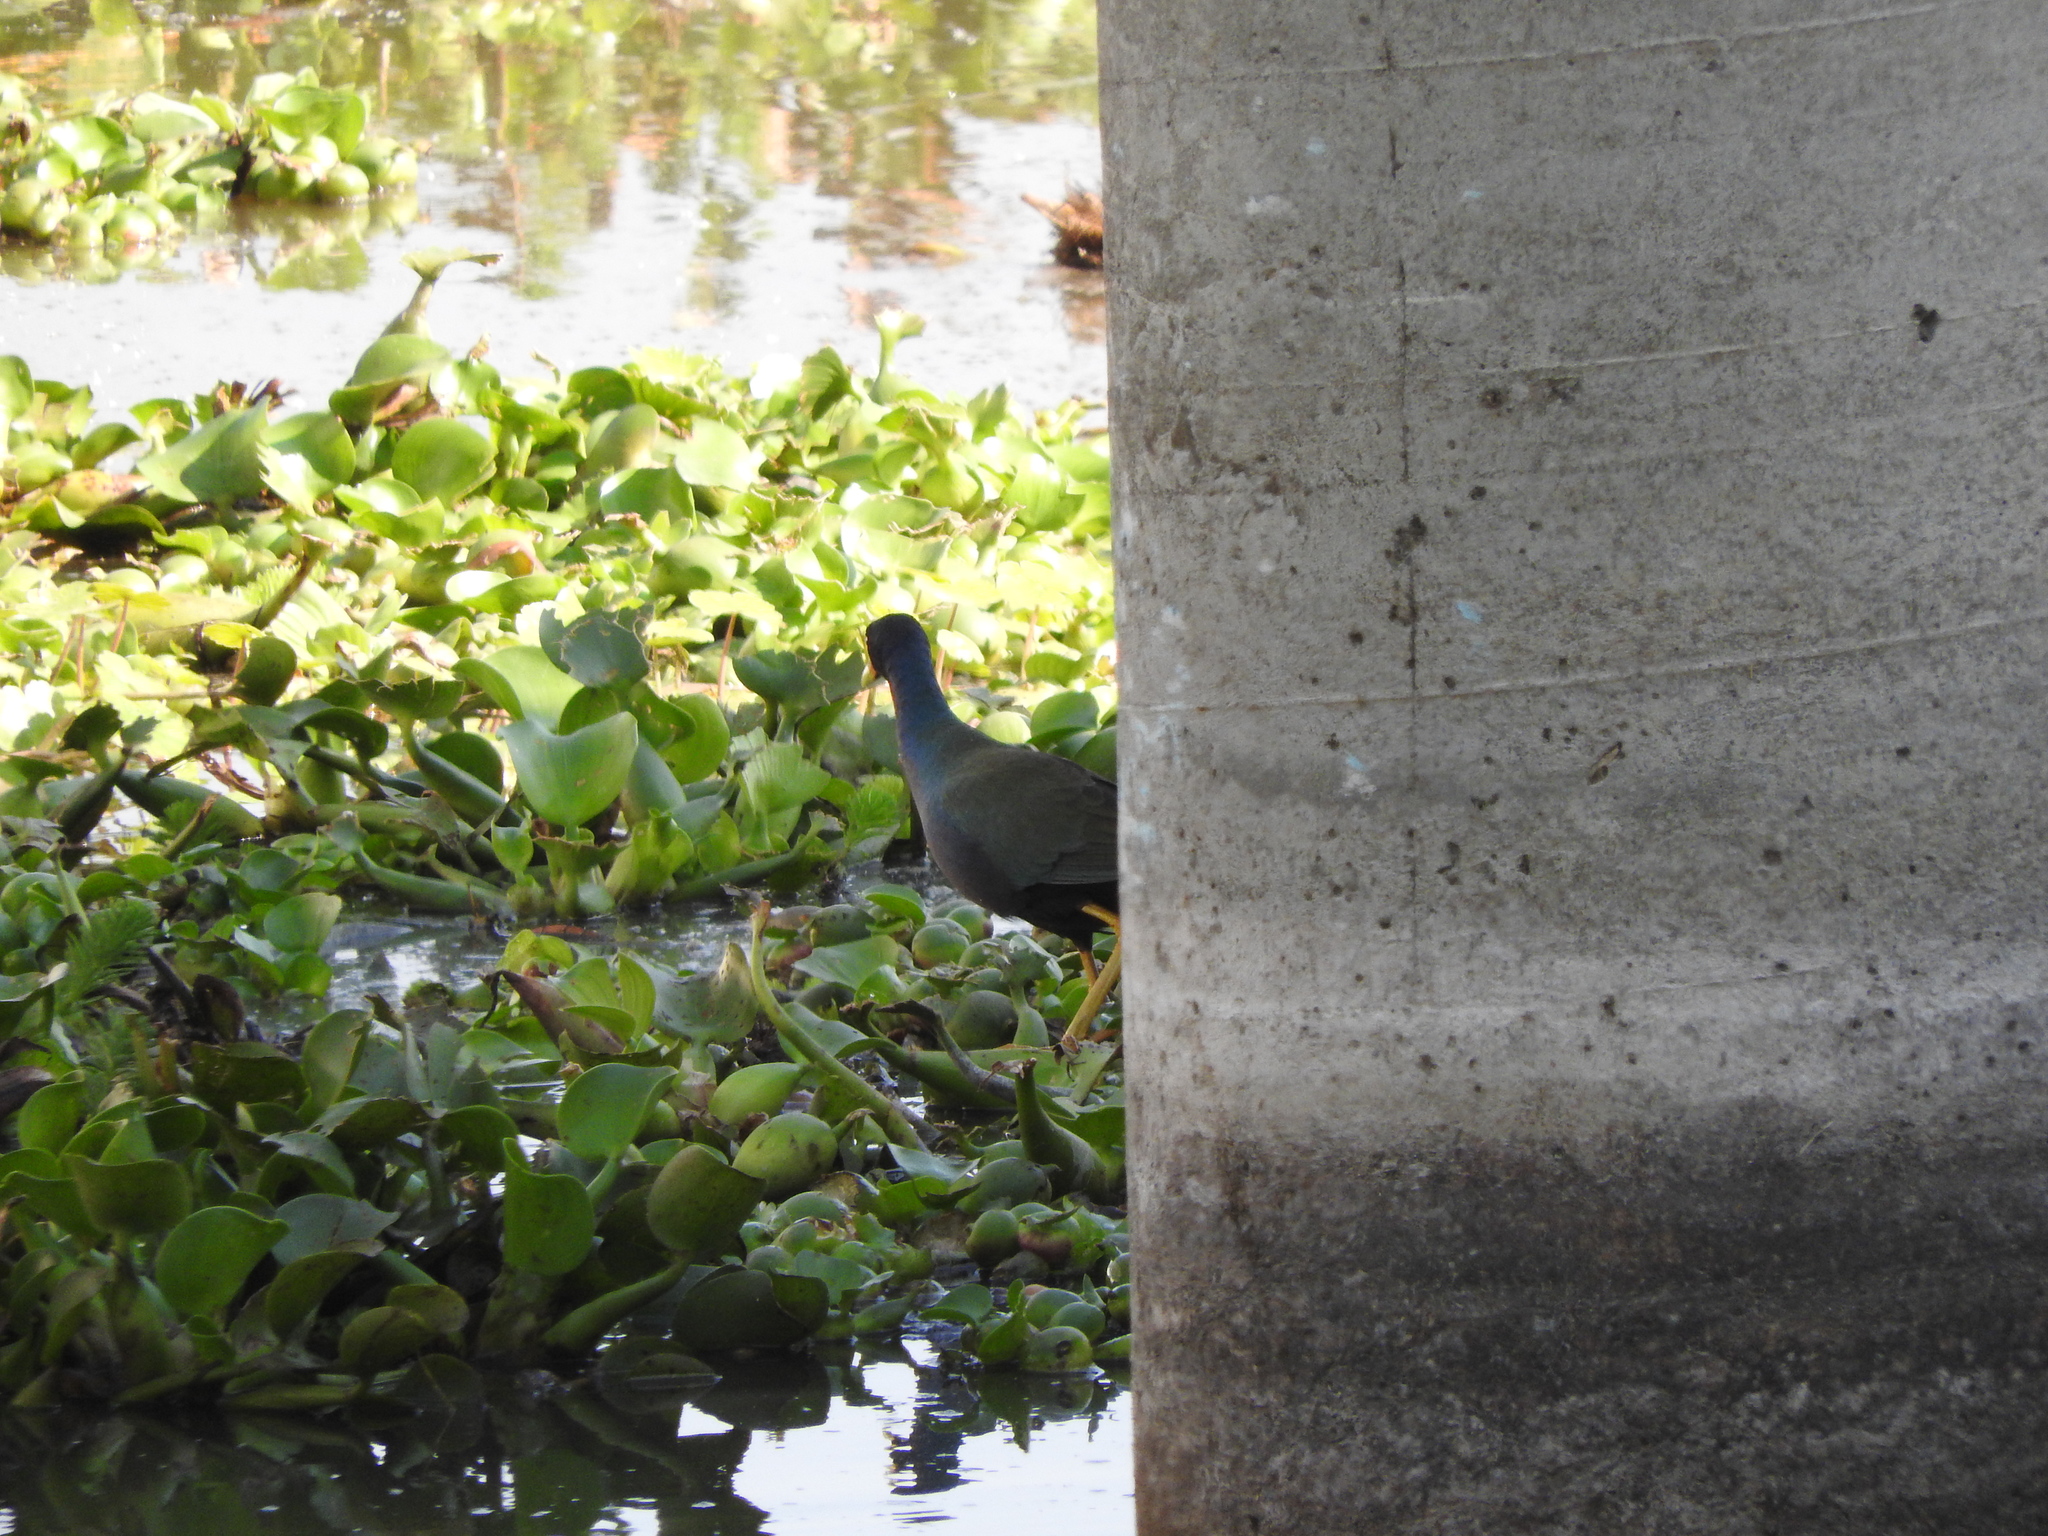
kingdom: Animalia
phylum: Chordata
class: Aves
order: Gruiformes
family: Rallidae
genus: Porphyrio
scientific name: Porphyrio martinica
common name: Purple gallinule
